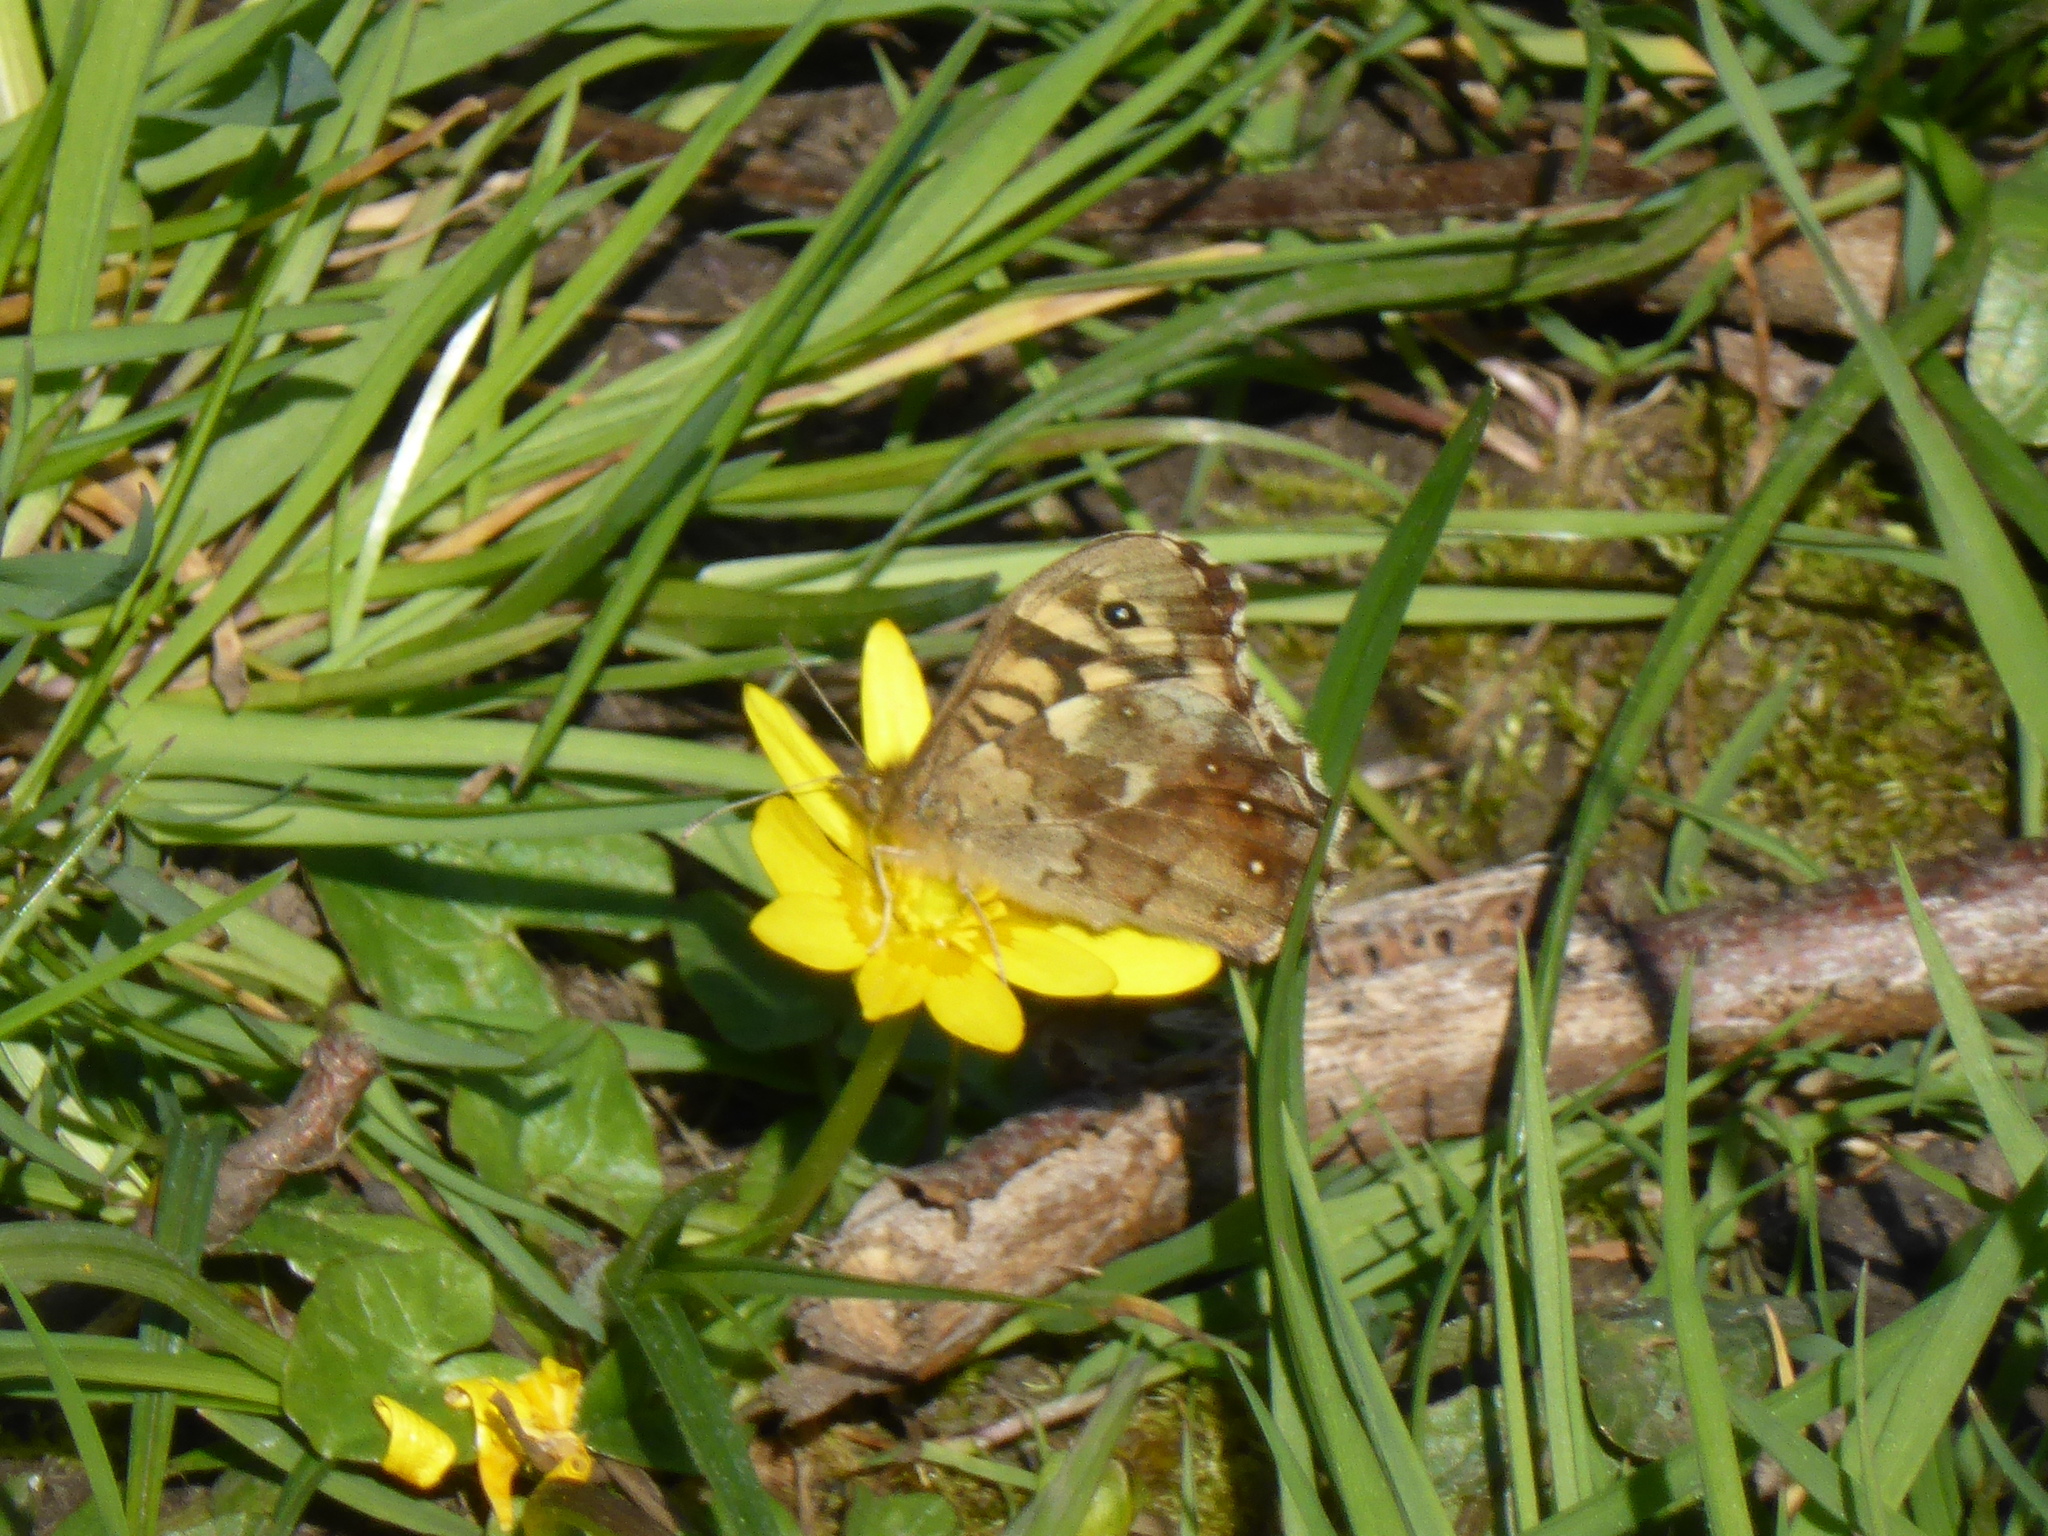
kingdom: Animalia
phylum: Arthropoda
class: Insecta
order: Lepidoptera
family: Nymphalidae
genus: Pararge
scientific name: Pararge aegeria
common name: Speckled wood
